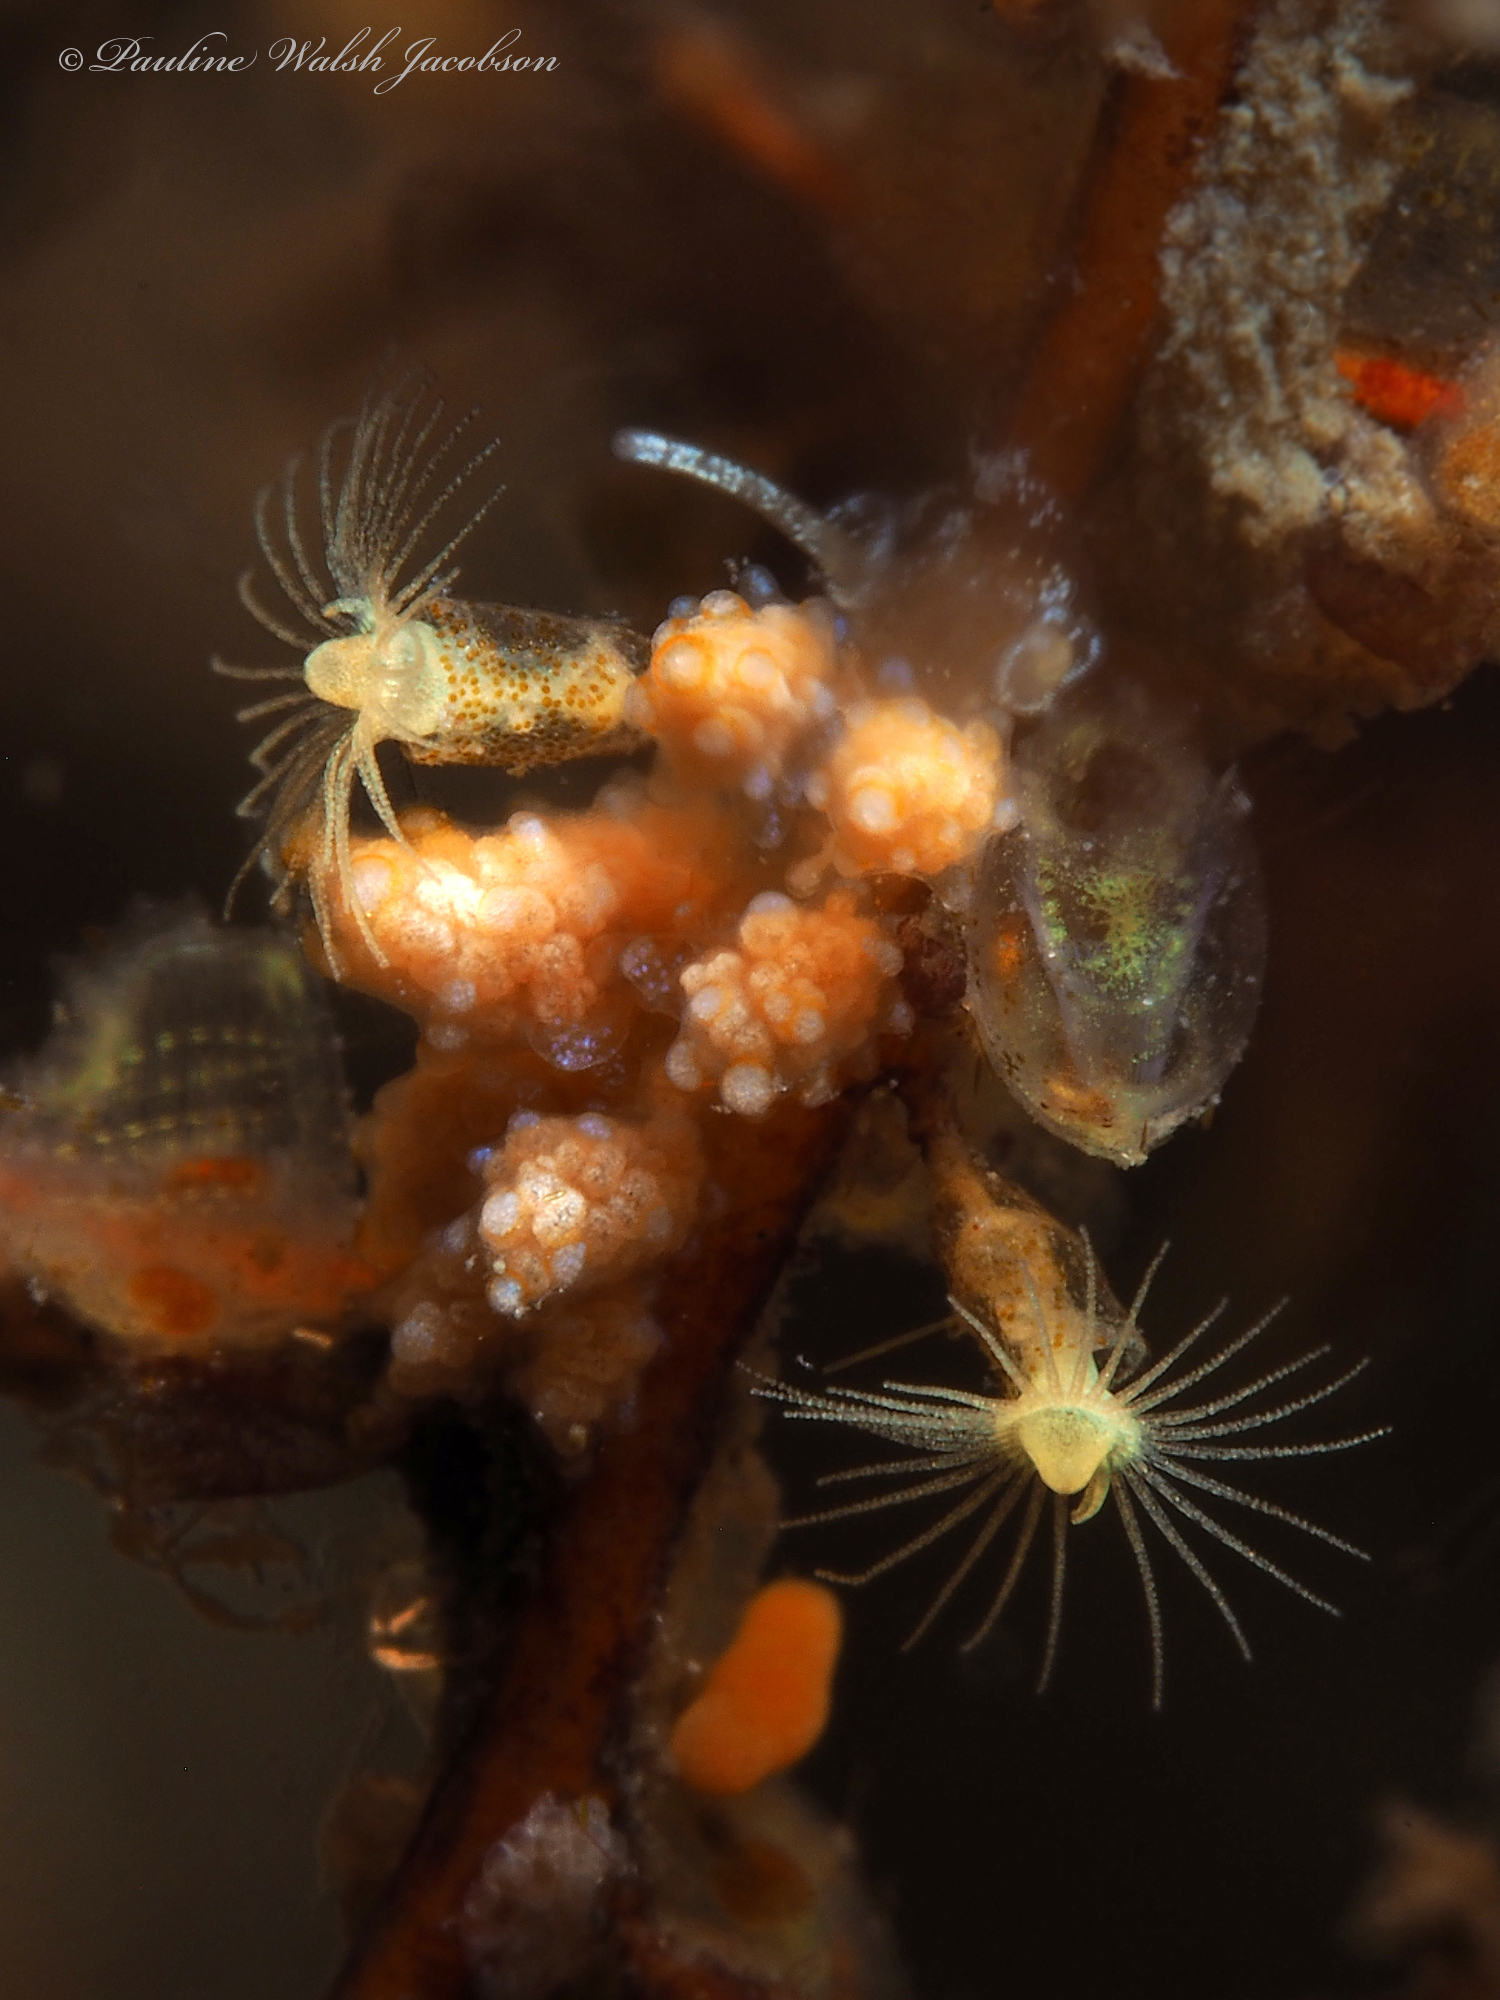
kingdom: Animalia
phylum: Mollusca
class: Gastropoda
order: Nudibranchia
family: Dotidae
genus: Doto
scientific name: Doto torrelavega
